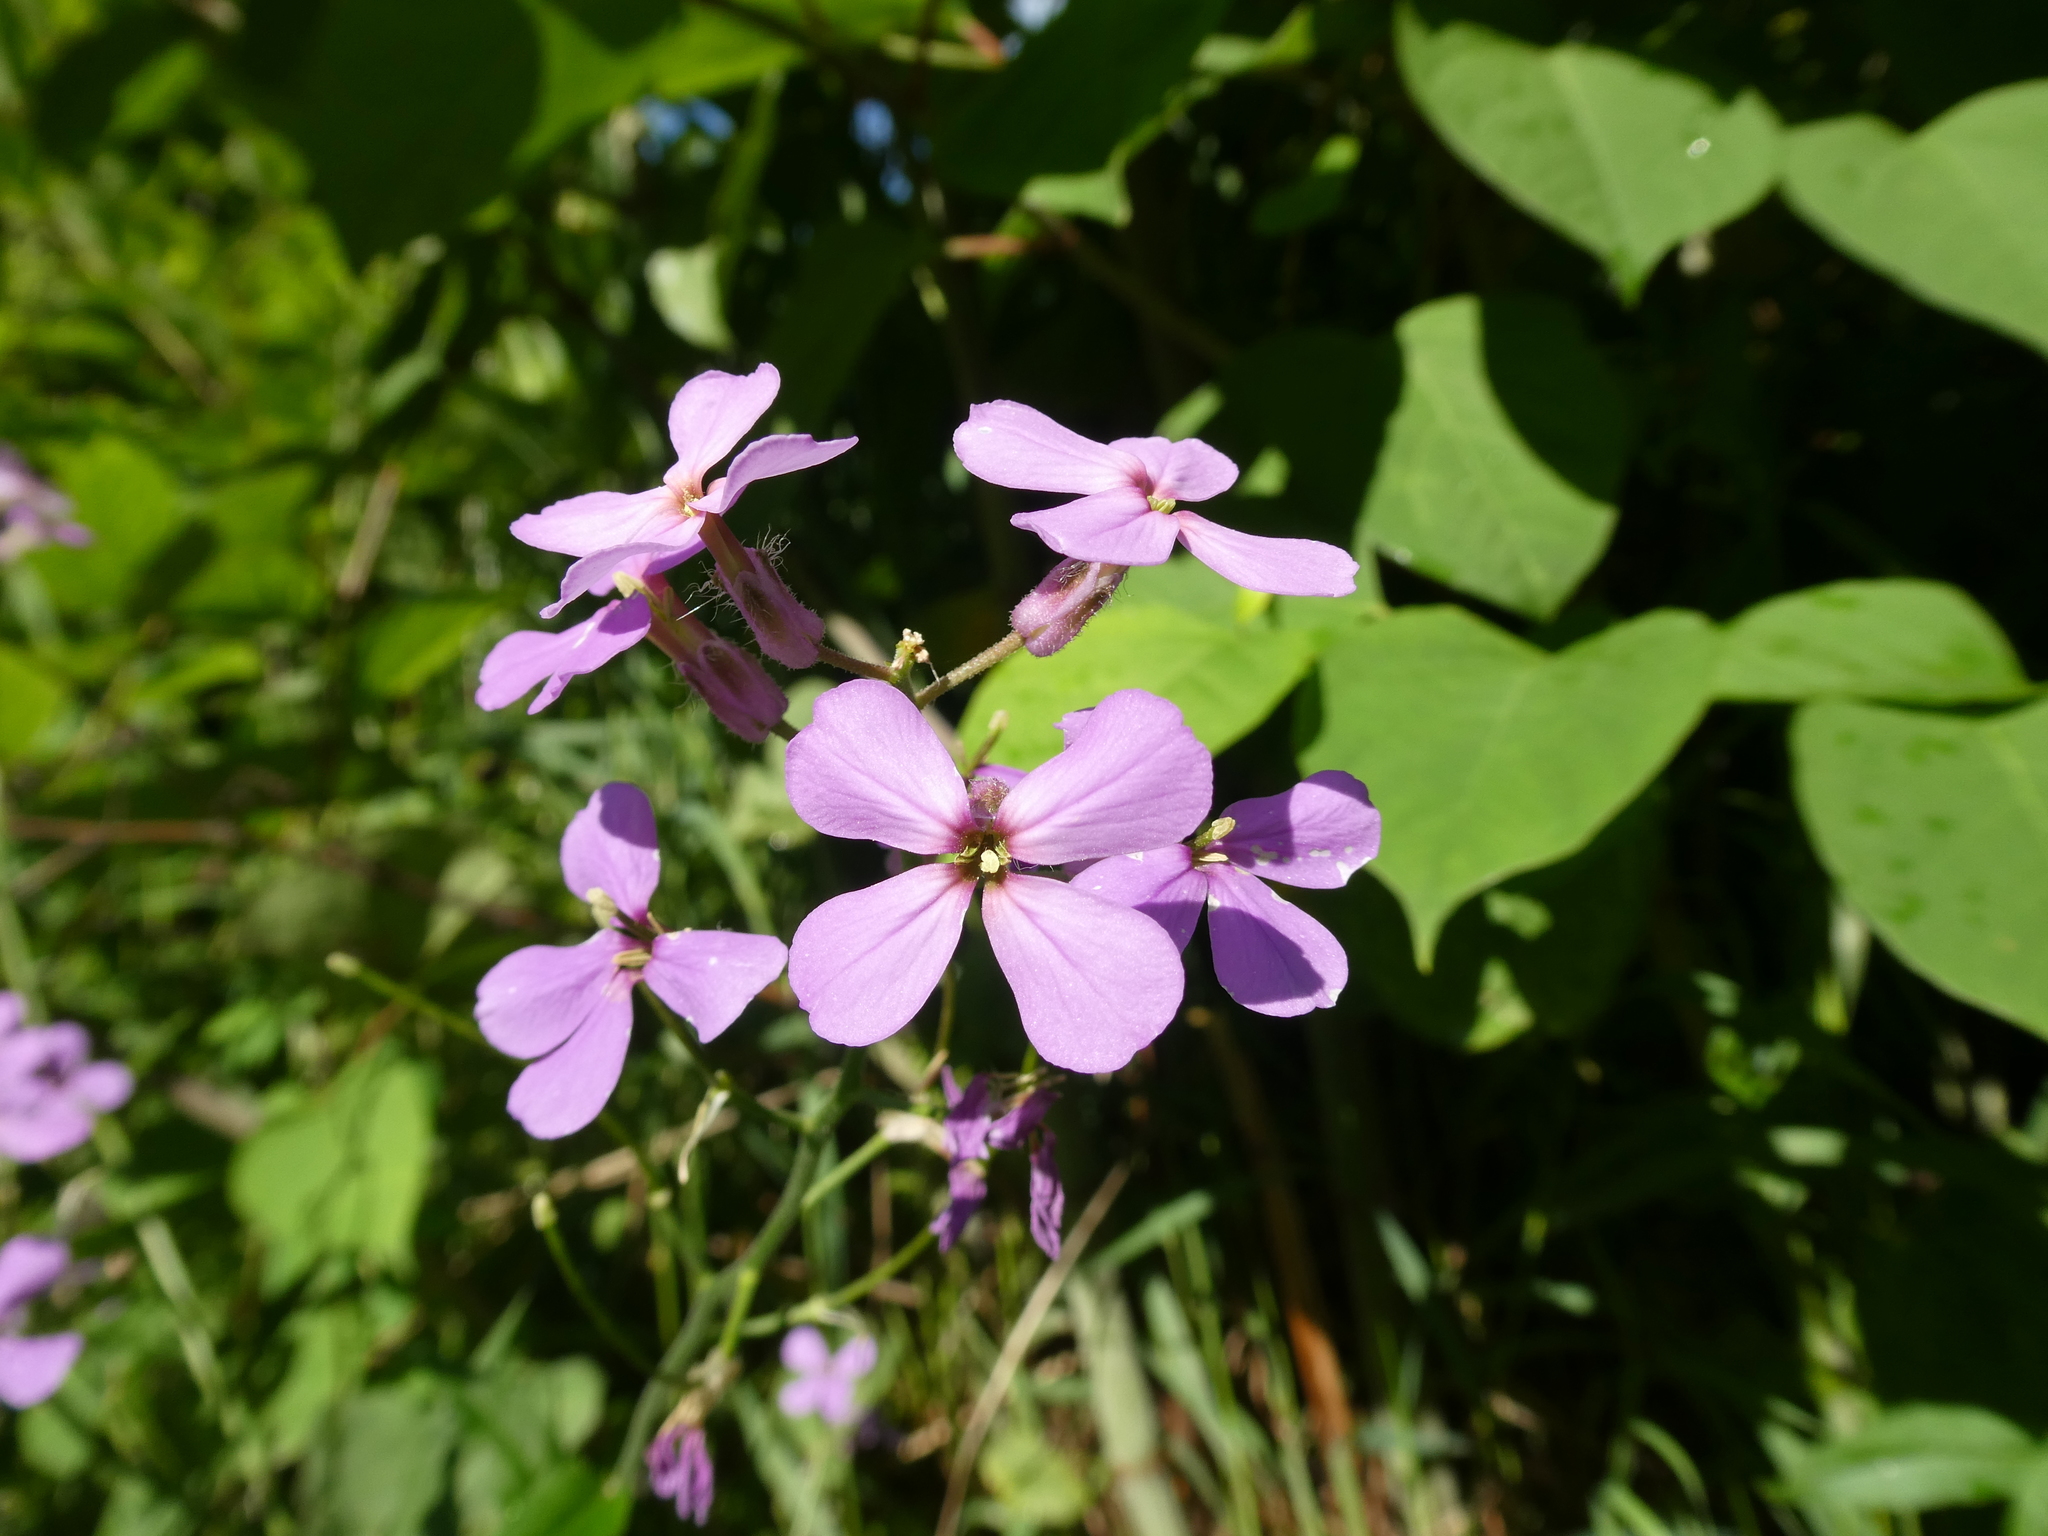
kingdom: Plantae
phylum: Tracheophyta
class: Magnoliopsida
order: Brassicales
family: Brassicaceae
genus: Hesperis
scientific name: Hesperis matronalis
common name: Dame's-violet
